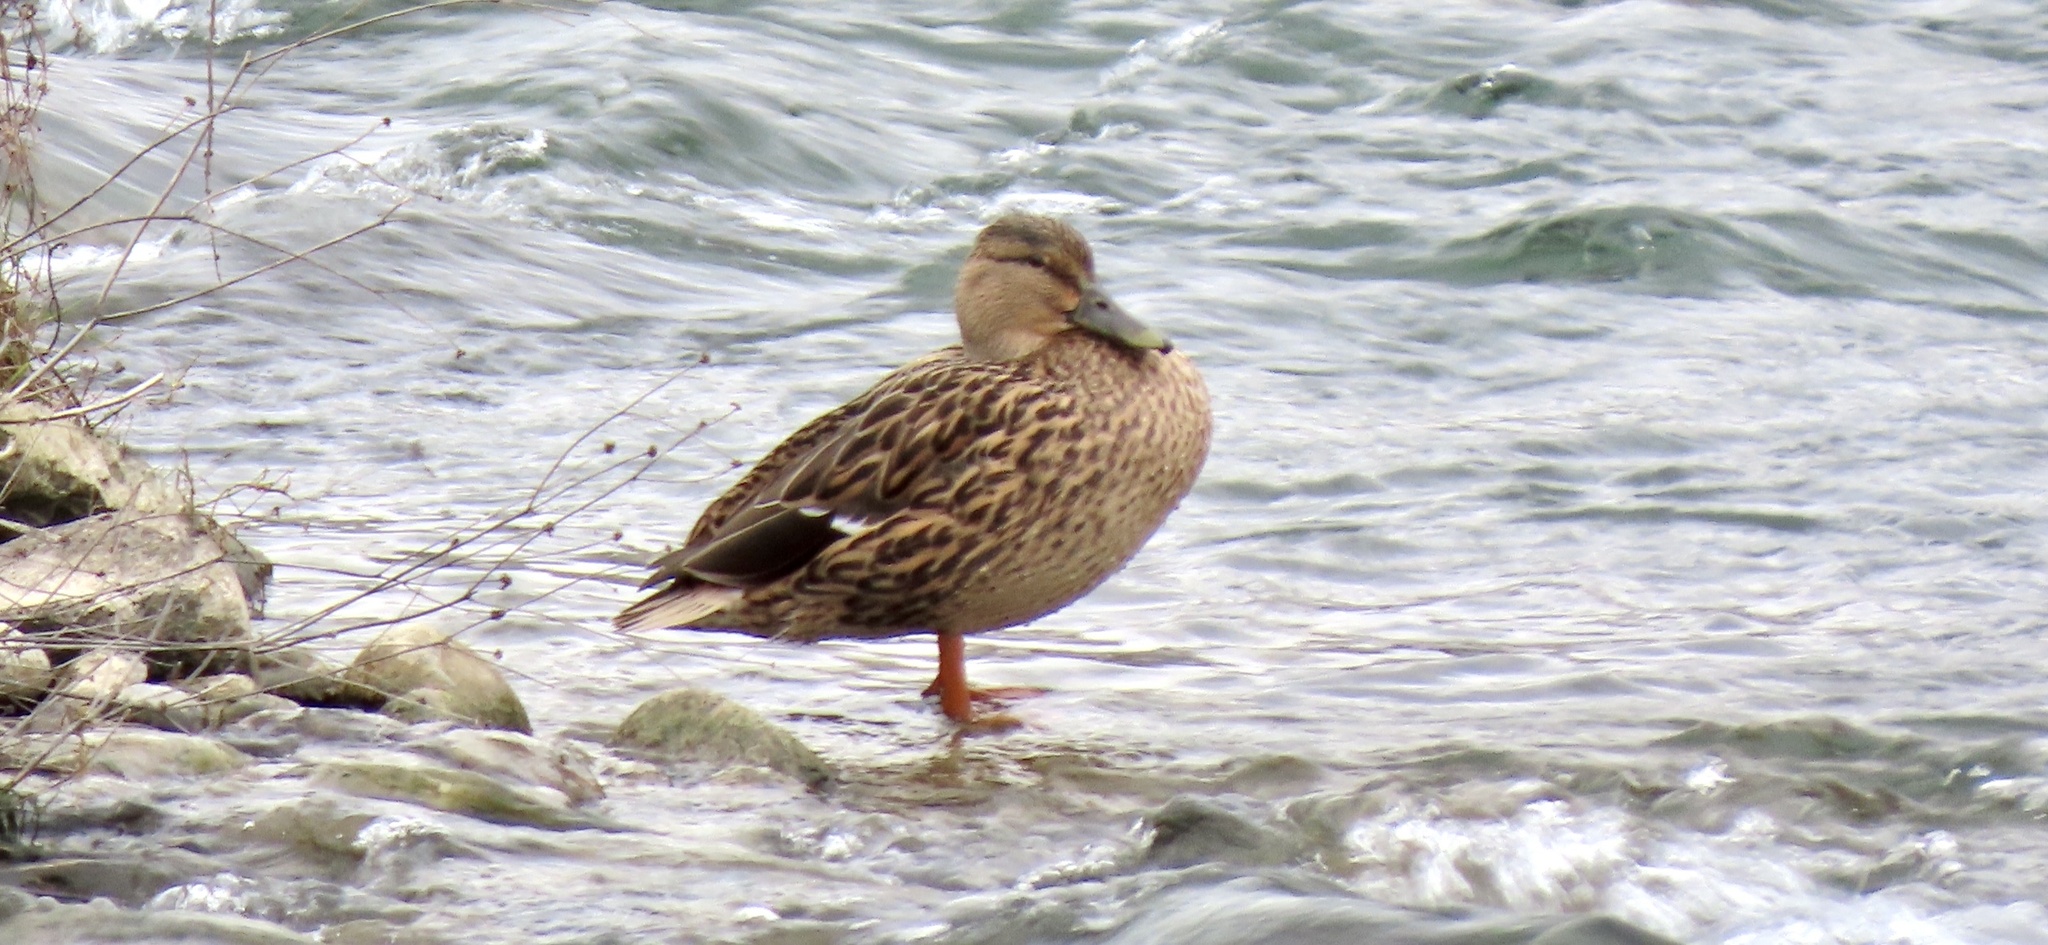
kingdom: Animalia
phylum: Chordata
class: Aves
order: Anseriformes
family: Anatidae
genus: Anas
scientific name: Anas platyrhynchos
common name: Mallard
